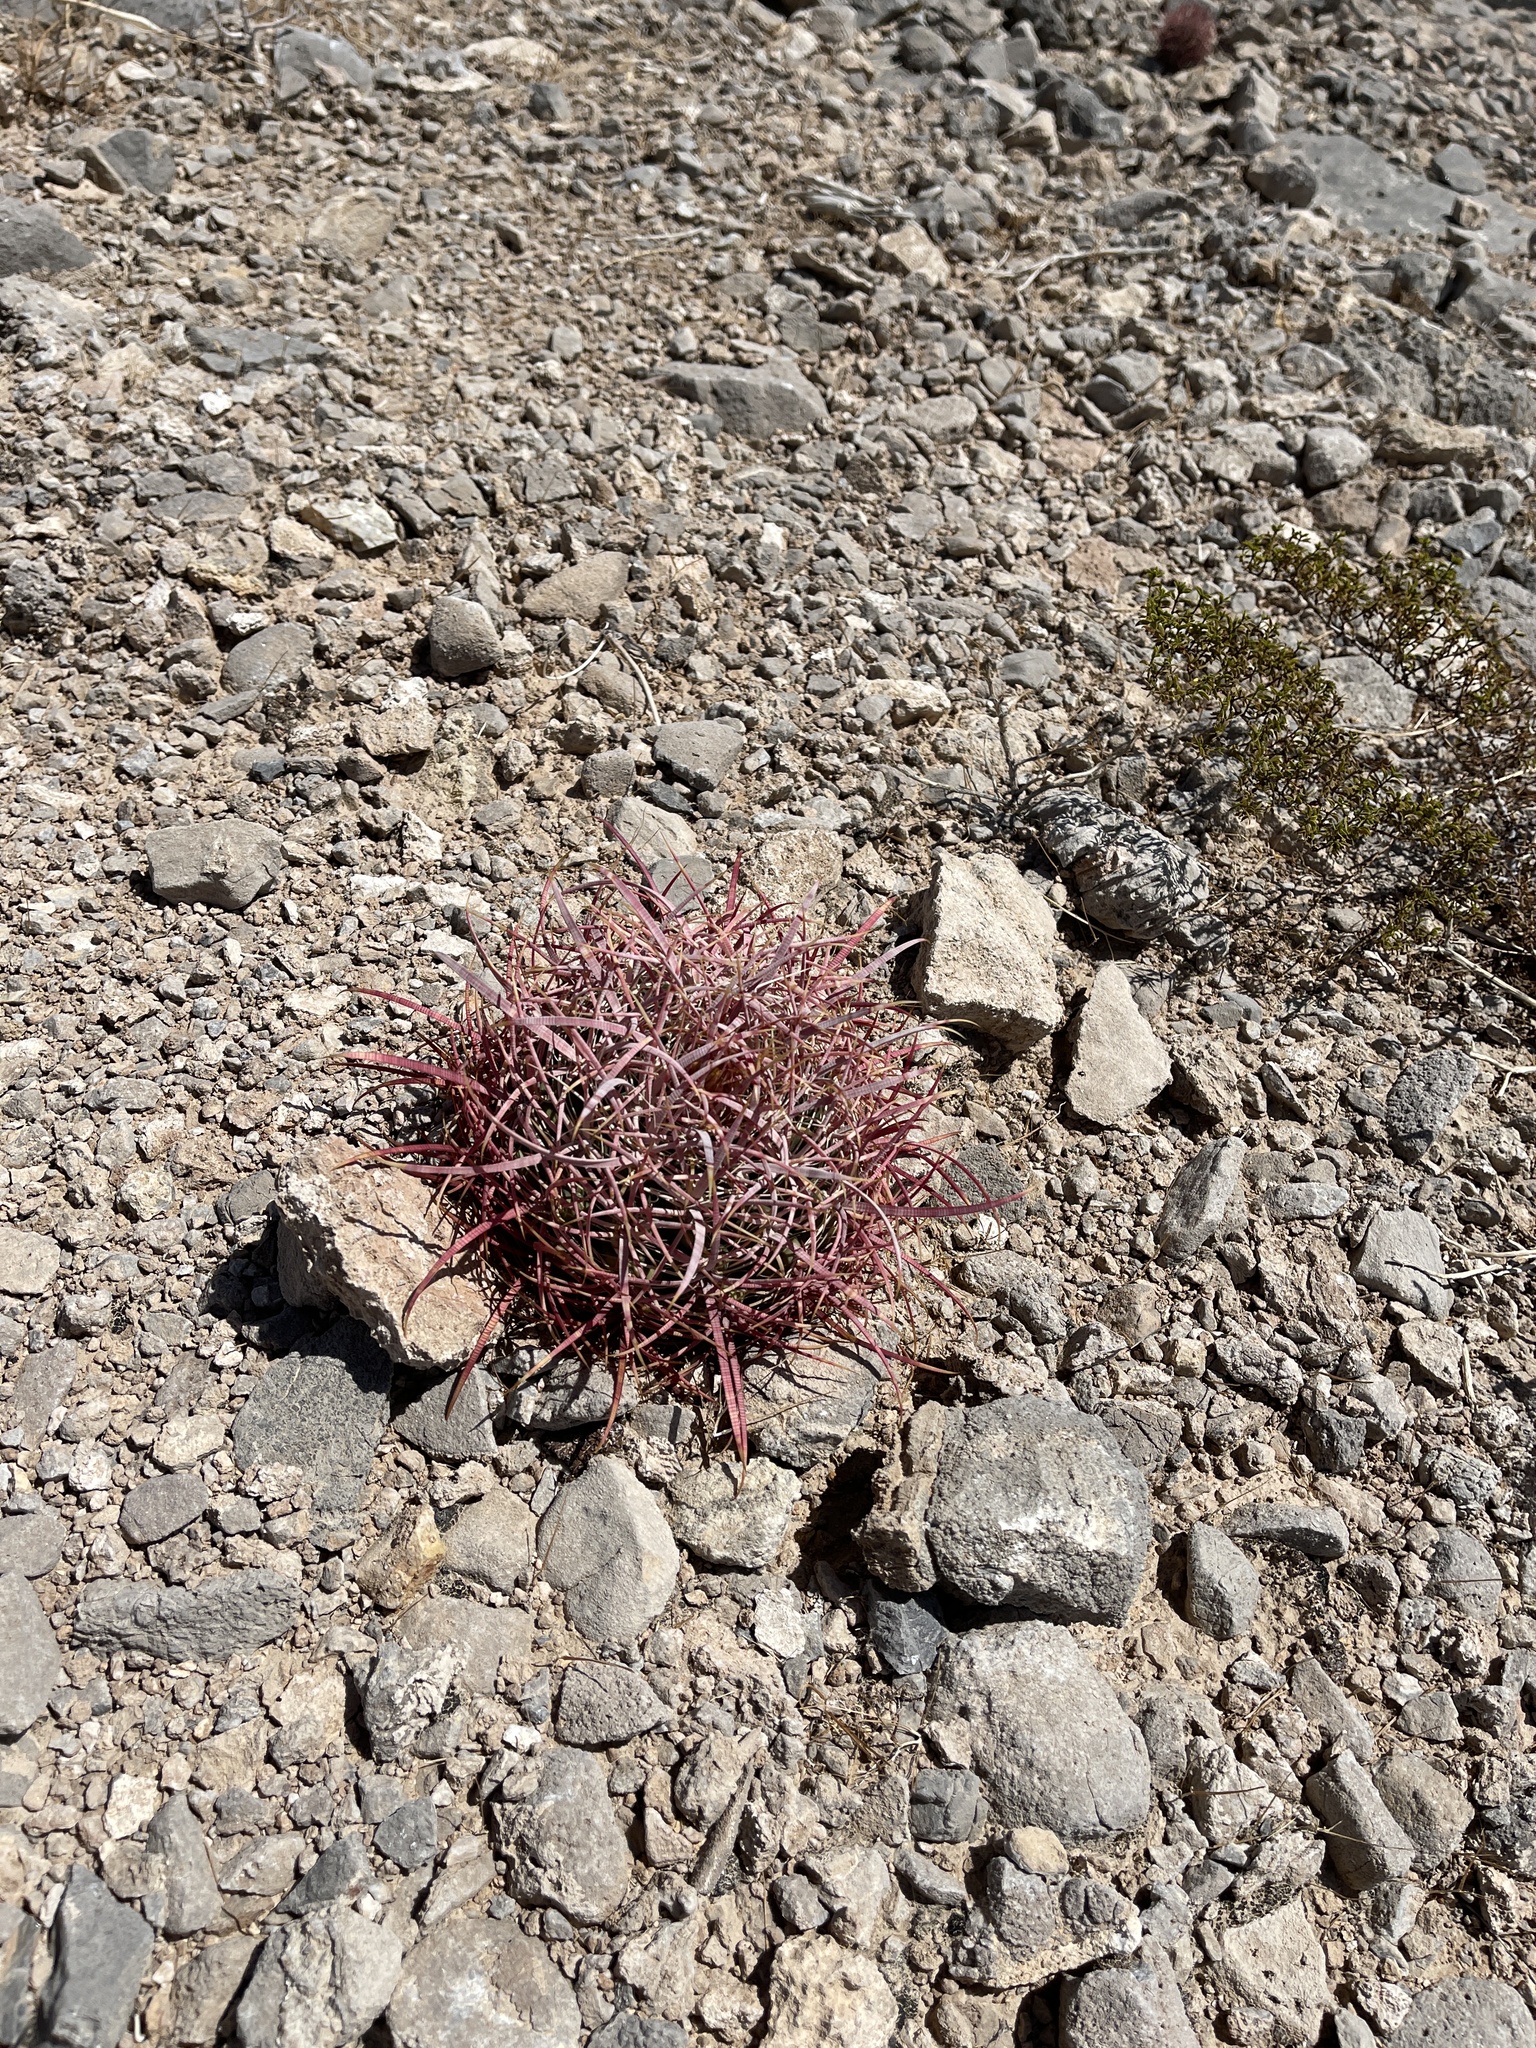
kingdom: Plantae
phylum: Tracheophyta
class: Magnoliopsida
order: Caryophyllales
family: Cactaceae
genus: Ferocactus
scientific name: Ferocactus cylindraceus
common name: California barrel cactus
